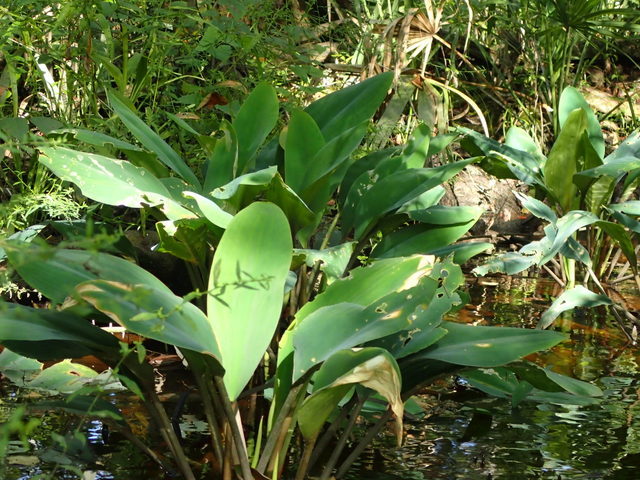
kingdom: Plantae
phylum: Tracheophyta
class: Liliopsida
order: Alismatales
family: Araceae
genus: Orontium
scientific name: Orontium aquaticum
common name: Golden-club
